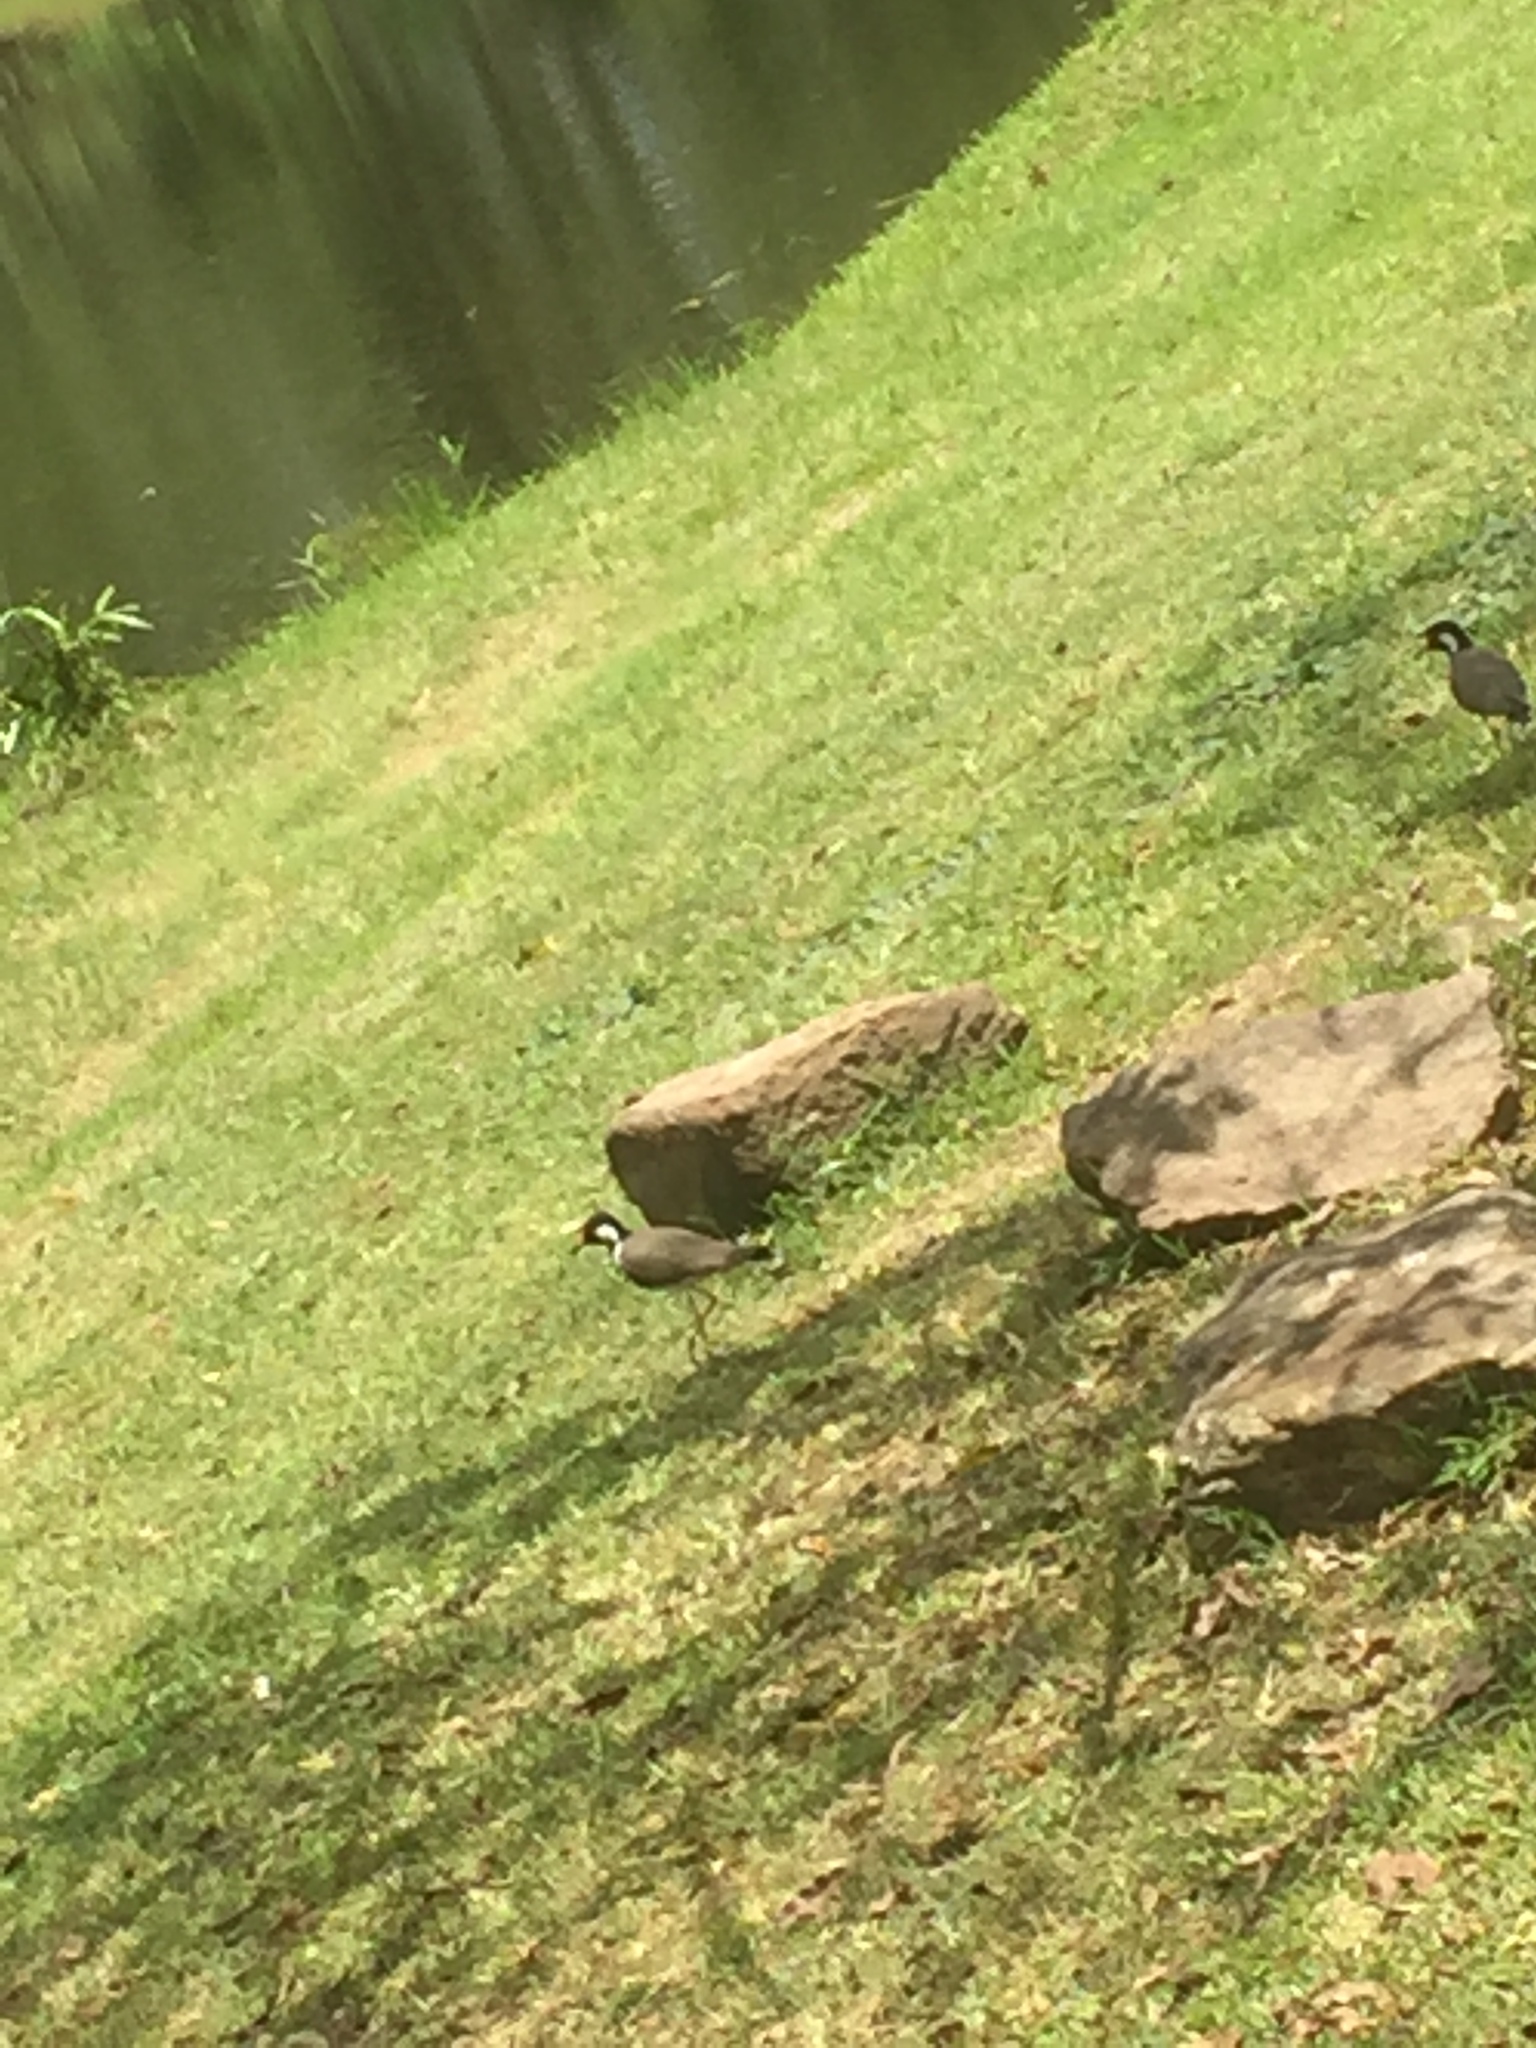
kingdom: Animalia
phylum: Chordata
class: Aves
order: Charadriiformes
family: Charadriidae
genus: Vanellus
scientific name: Vanellus indicus
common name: Red-wattled lapwing
